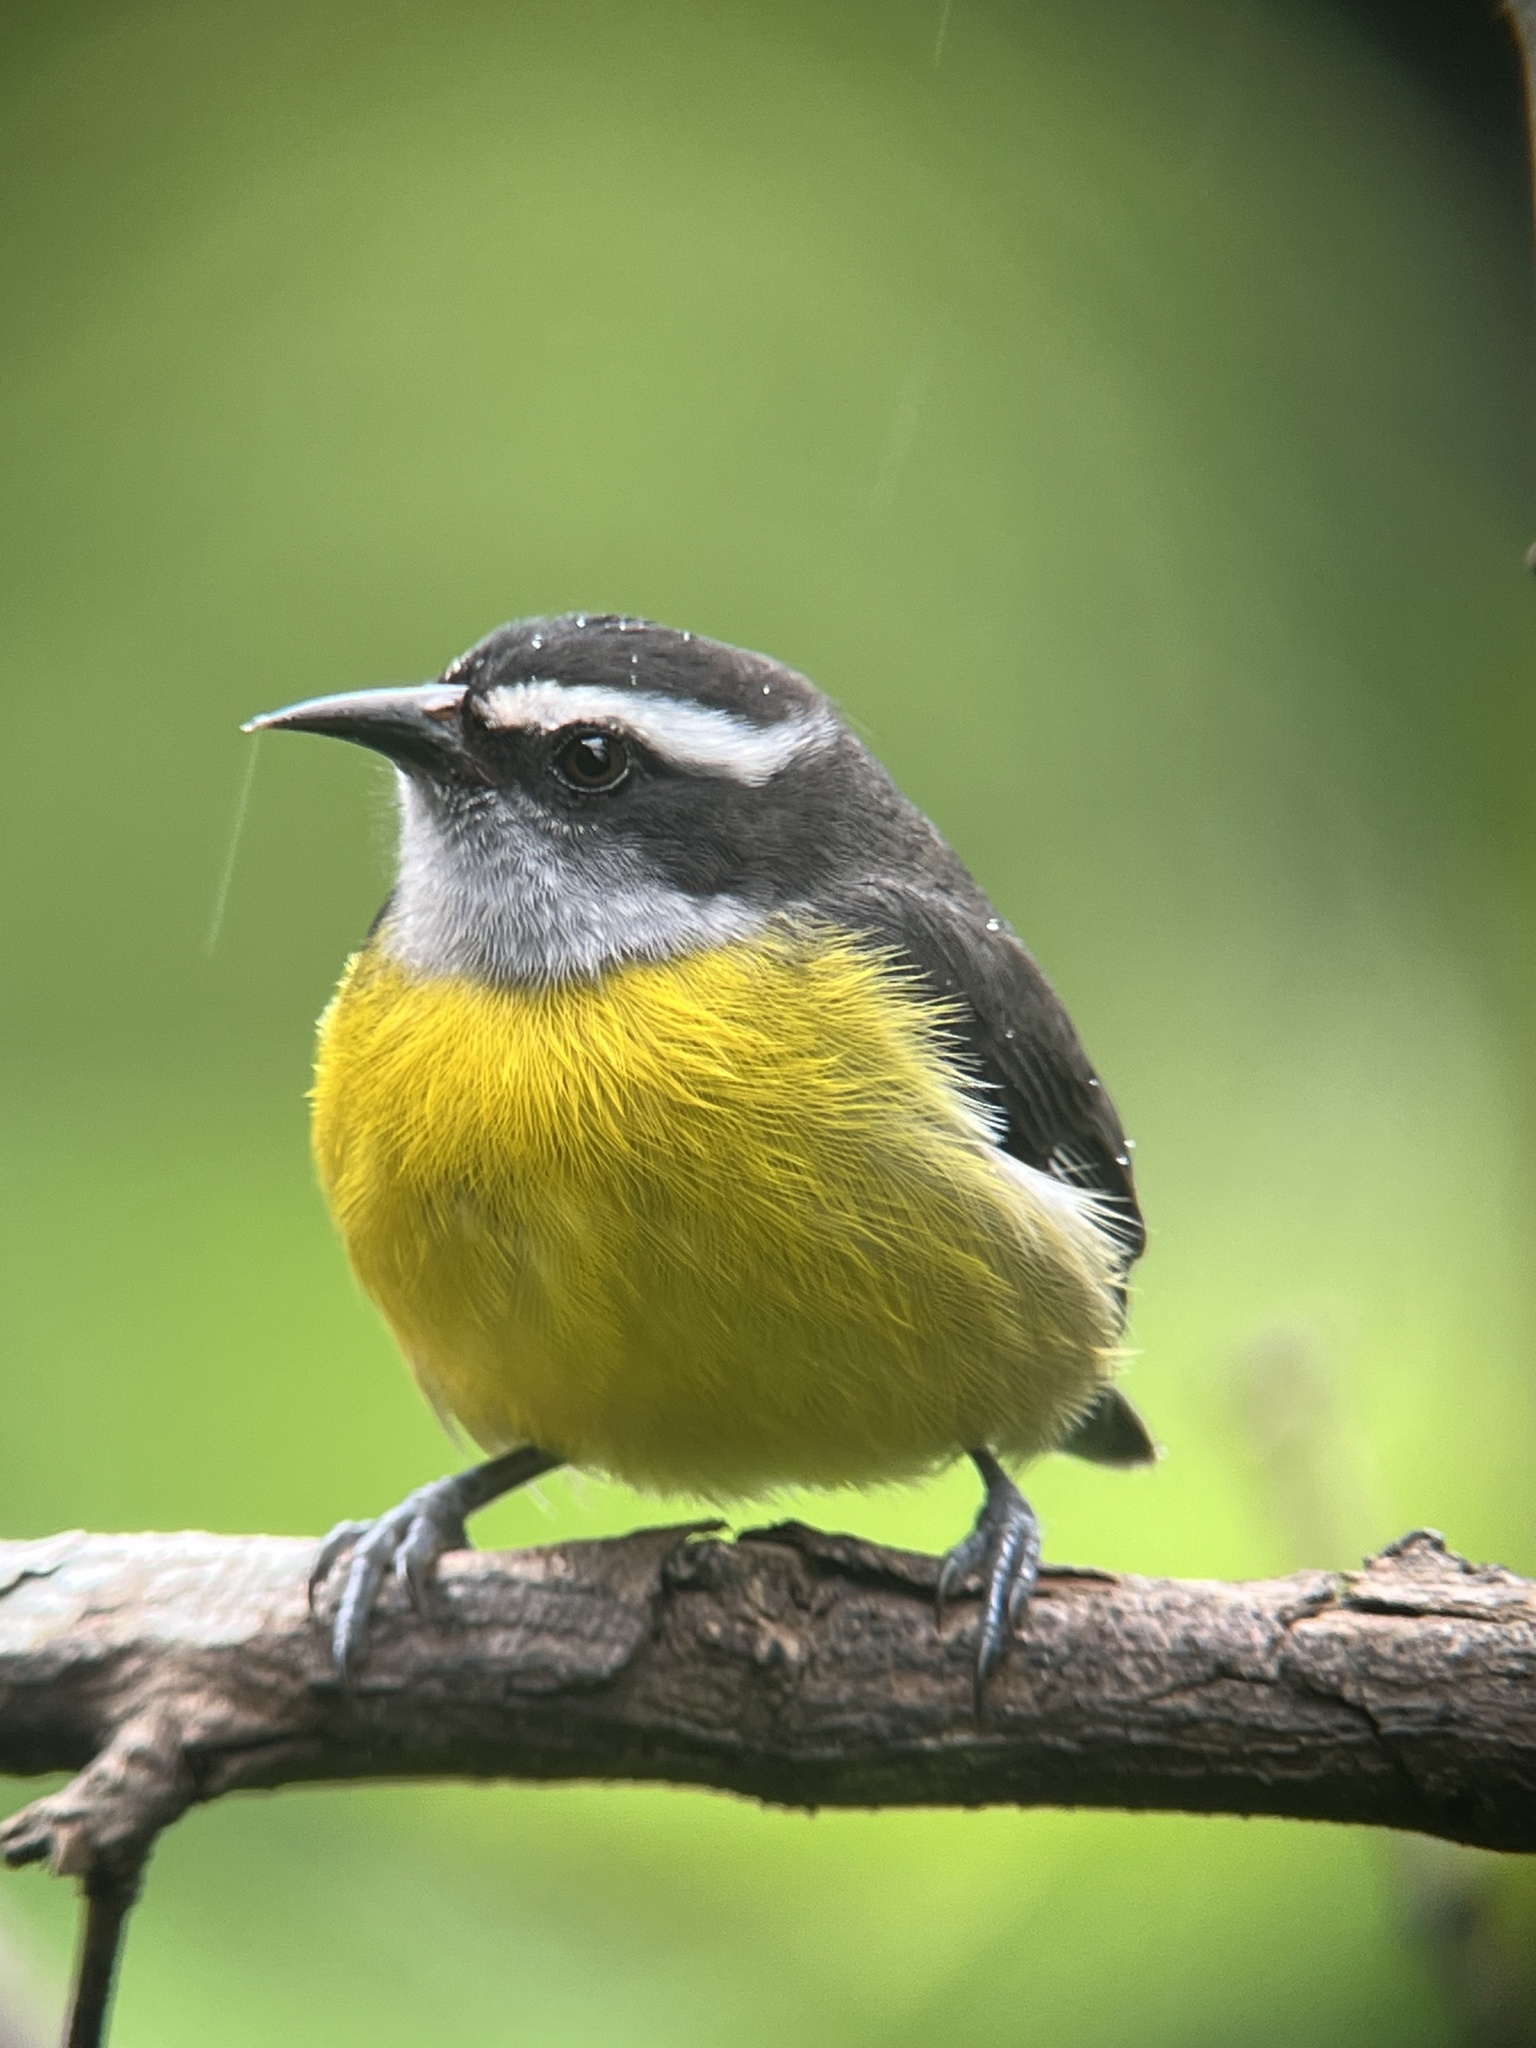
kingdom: Animalia
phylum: Chordata
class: Aves
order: Passeriformes
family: Thraupidae
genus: Coereba
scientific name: Coereba flaveola
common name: Bananaquit
